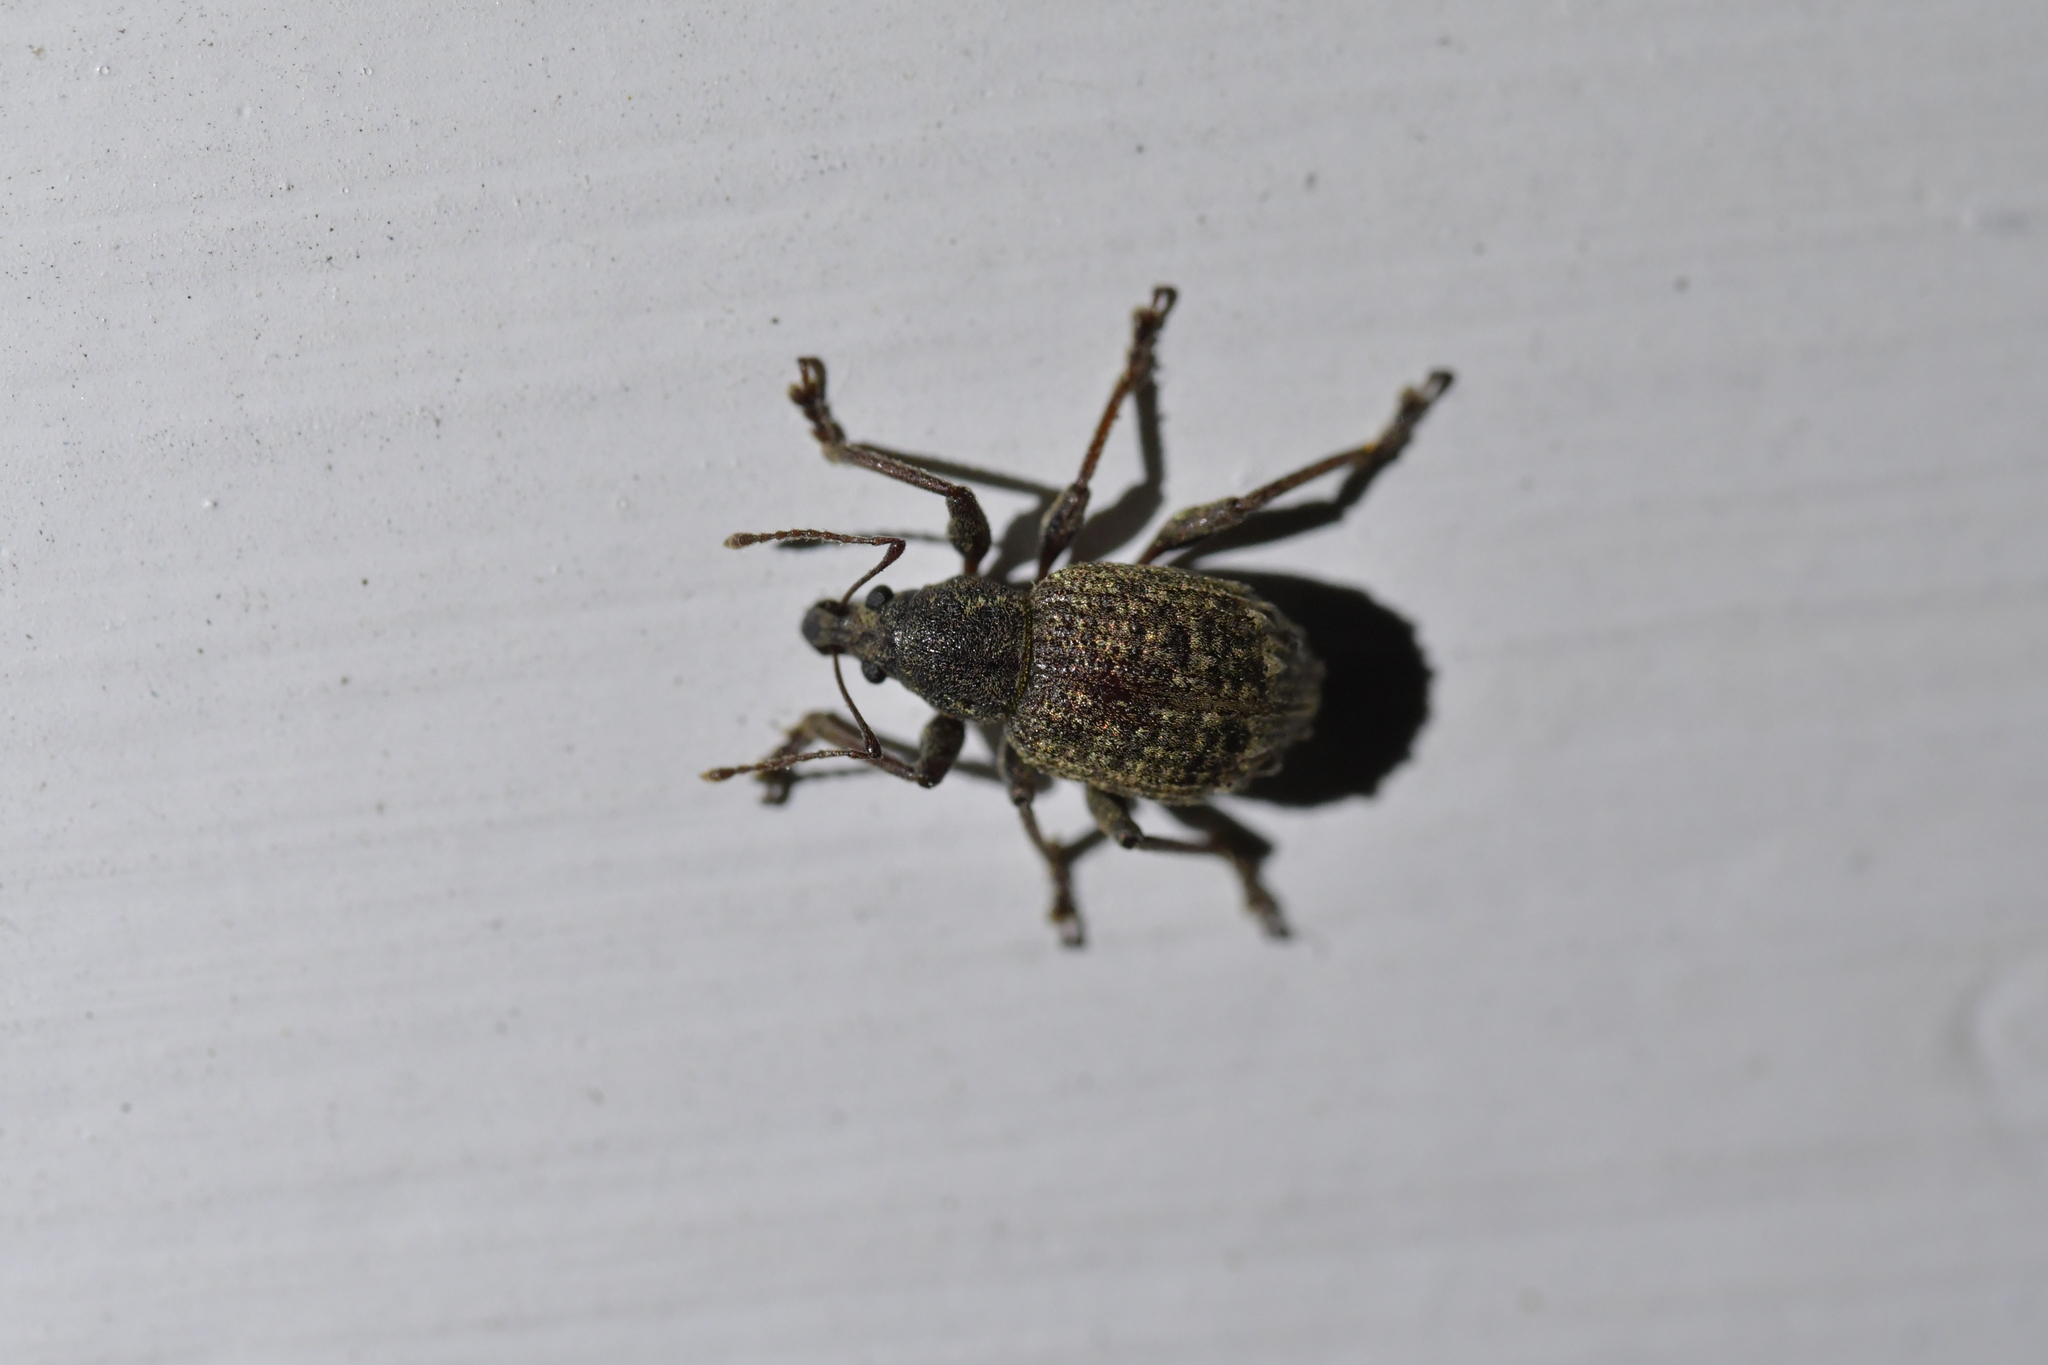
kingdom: Animalia
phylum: Arthropoda
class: Insecta
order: Coleoptera
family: Curculionidae
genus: Phlyctinus
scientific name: Phlyctinus callosus
